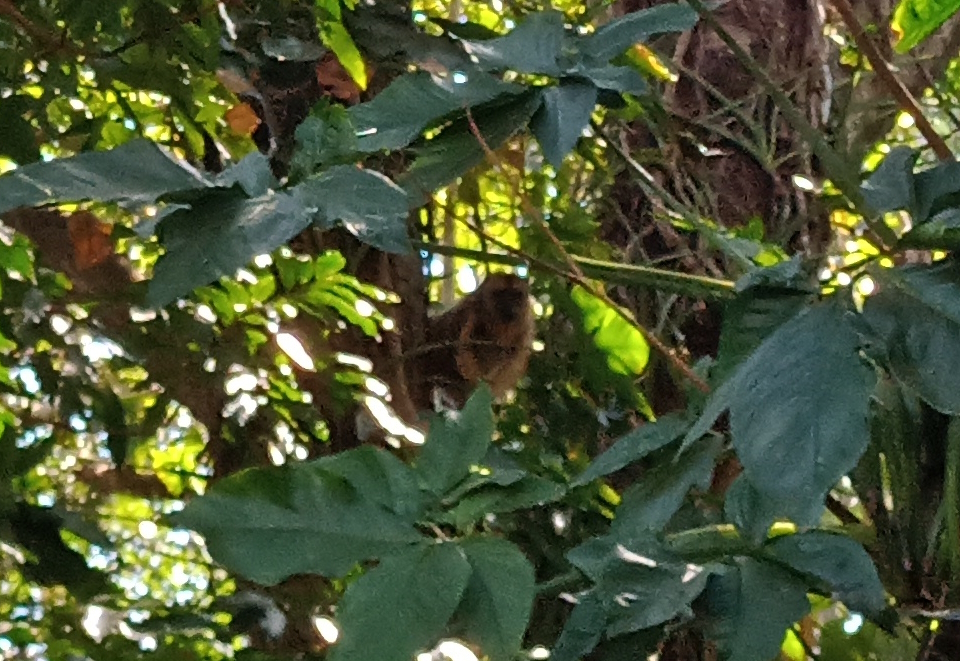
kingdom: Animalia
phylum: Chordata
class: Mammalia
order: Primates
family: Atelidae
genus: Alouatta
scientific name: Alouatta caraya
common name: Black howler
